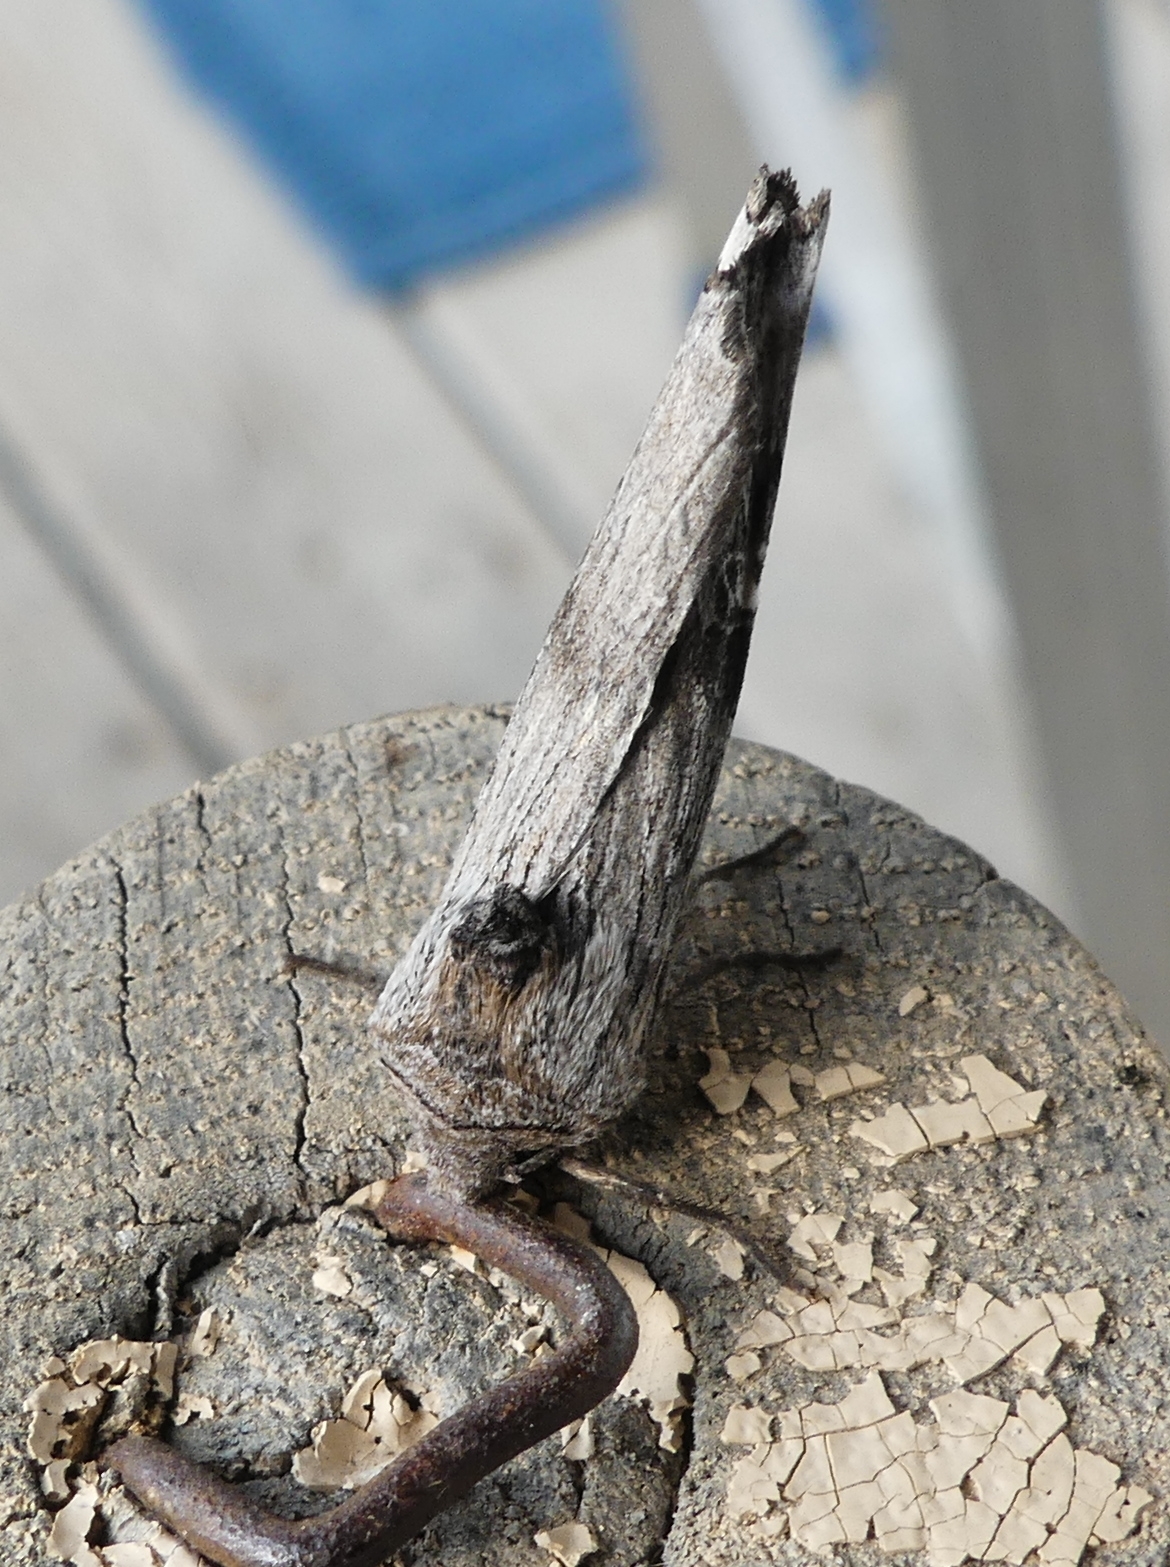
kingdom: Animalia
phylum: Arthropoda
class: Insecta
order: Lepidoptera
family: Noctuidae
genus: Xylena
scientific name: Xylena germana
